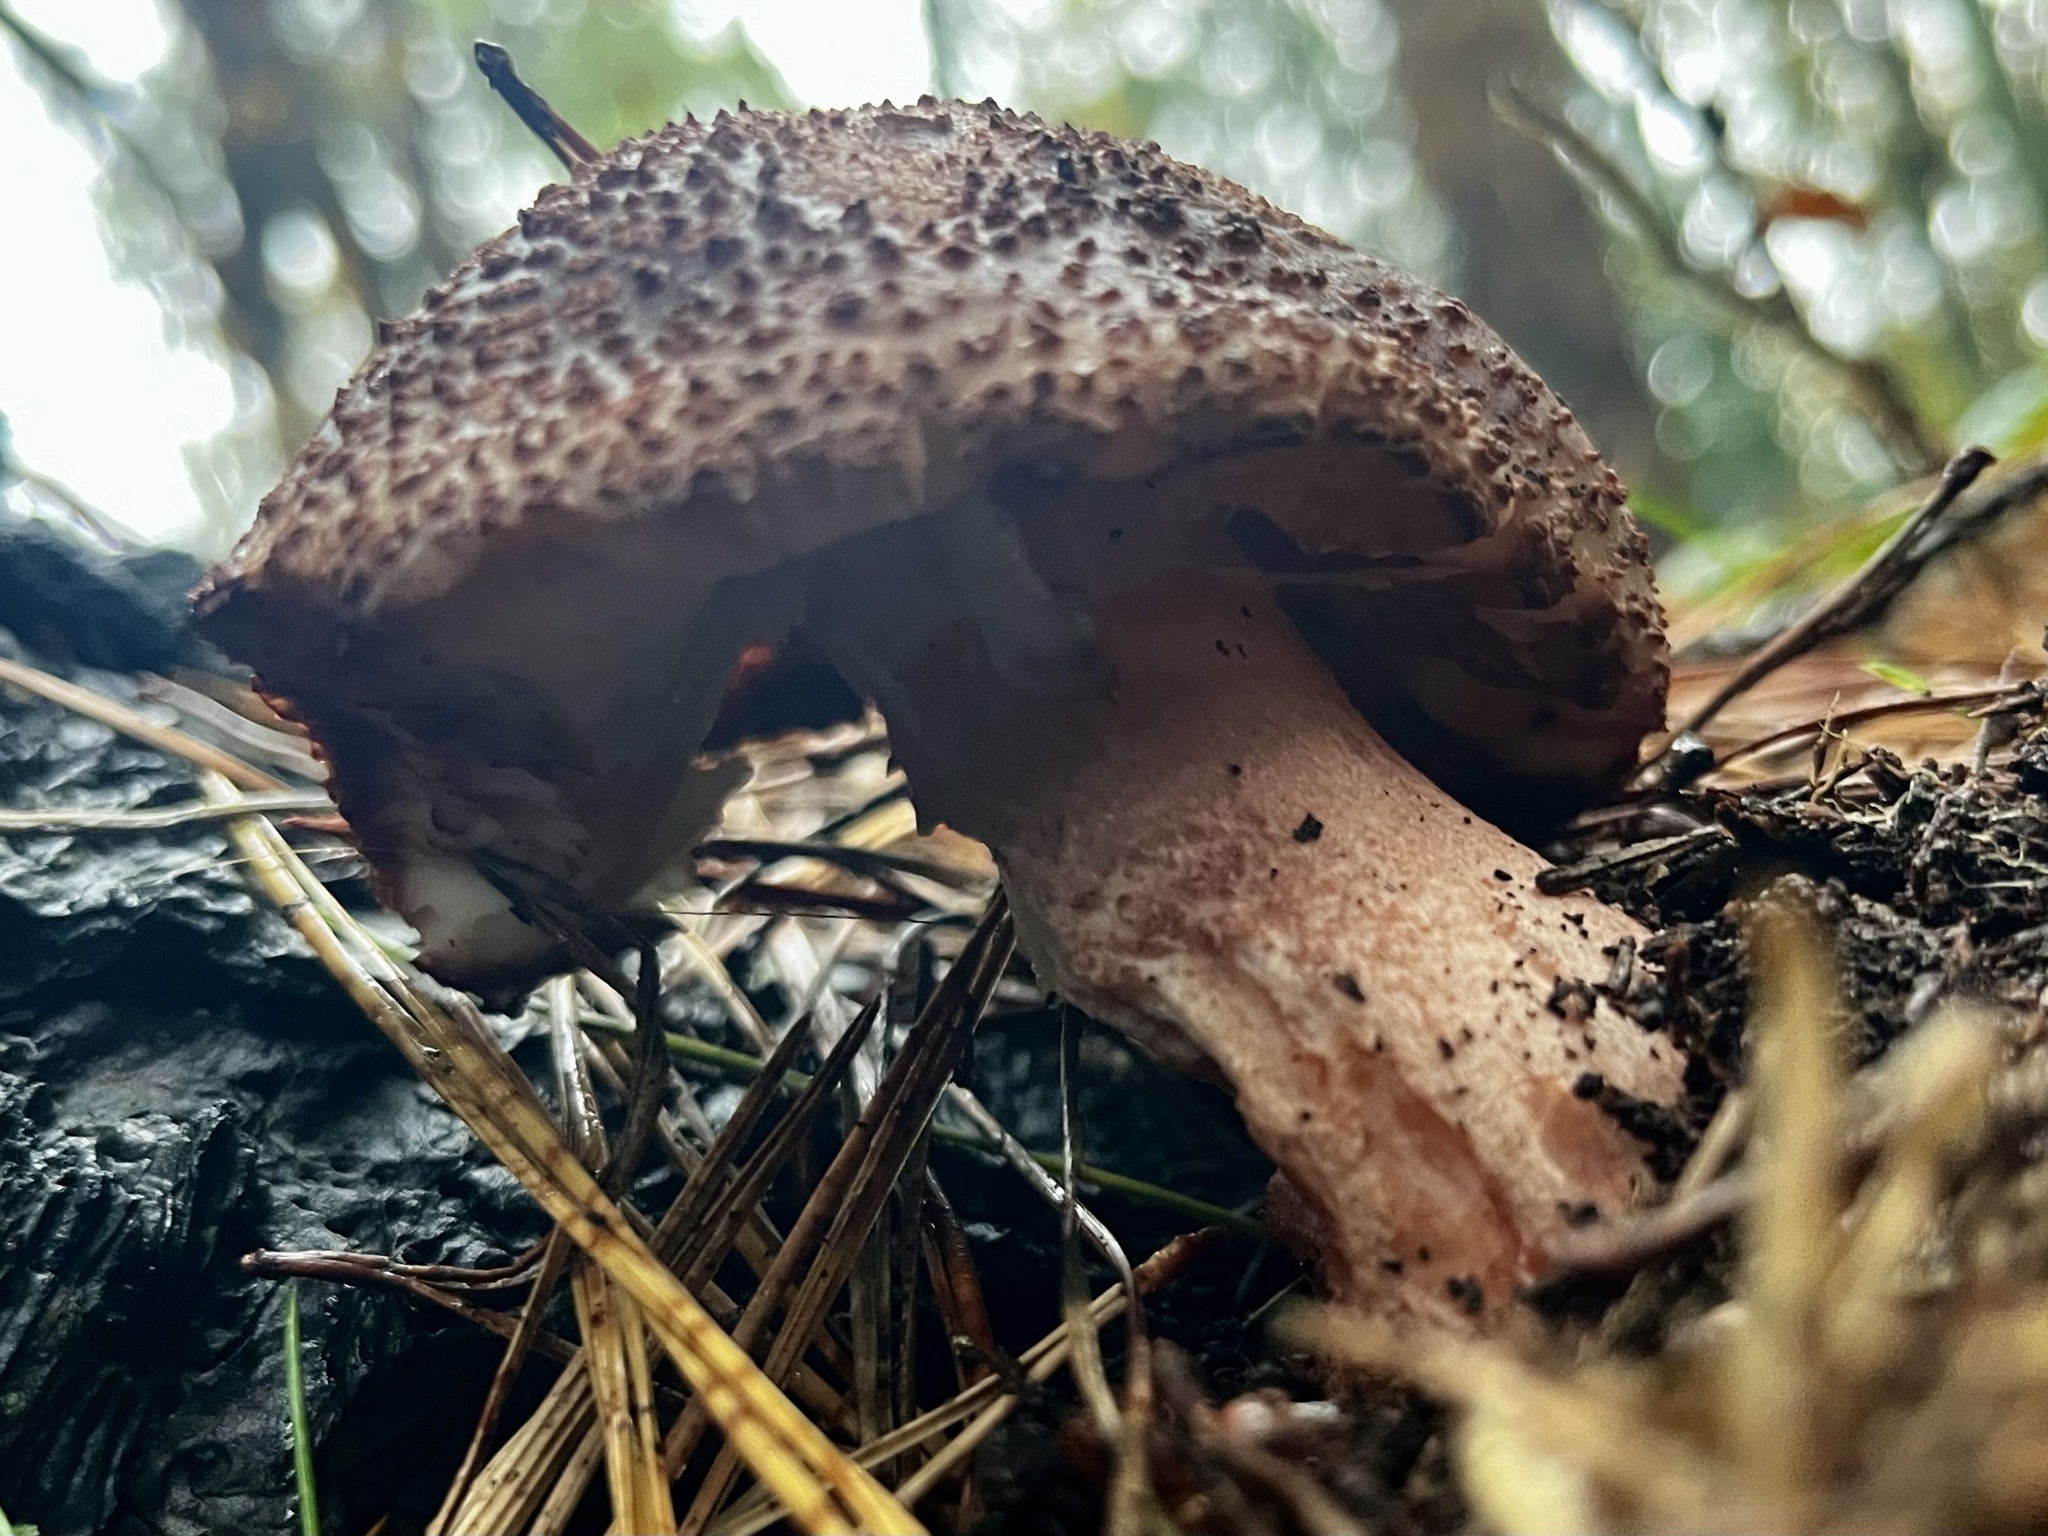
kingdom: Fungi
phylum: Basidiomycota
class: Agaricomycetes
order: Agaricales
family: Amanitaceae
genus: Amanita
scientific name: Amanita rubescens
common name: Blusher
